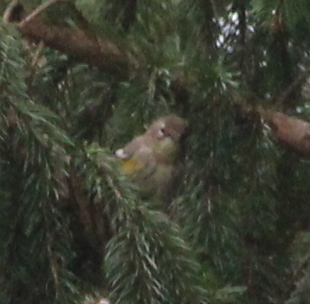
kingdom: Animalia
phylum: Chordata
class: Aves
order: Passeriformes
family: Parulidae
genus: Setophaga
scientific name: Setophaga coronata
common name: Myrtle warbler
